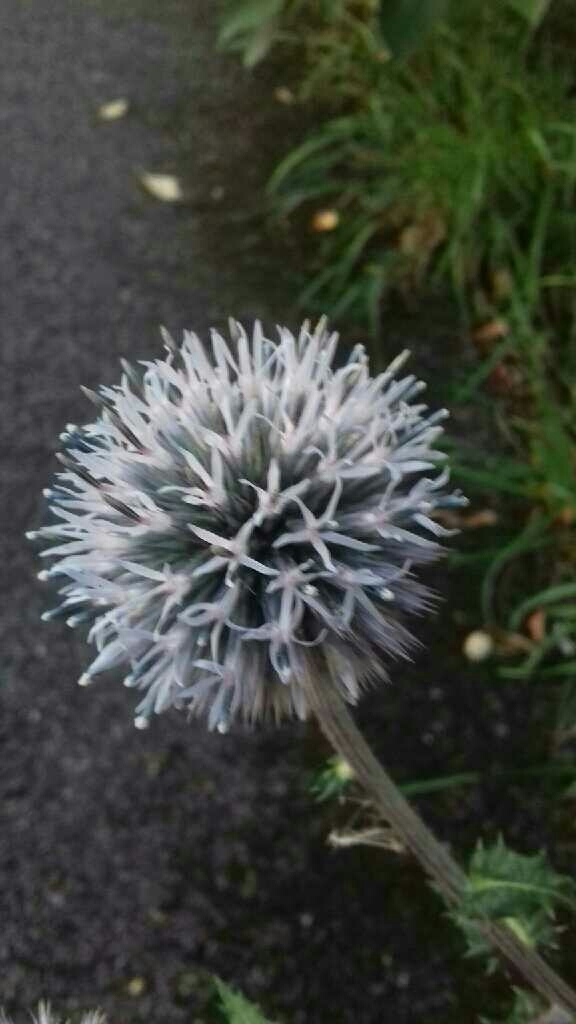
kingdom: Plantae
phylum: Tracheophyta
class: Magnoliopsida
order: Asterales
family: Asteraceae
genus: Echinops
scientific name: Echinops sphaerocephalus
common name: Glandular globe-thistle
